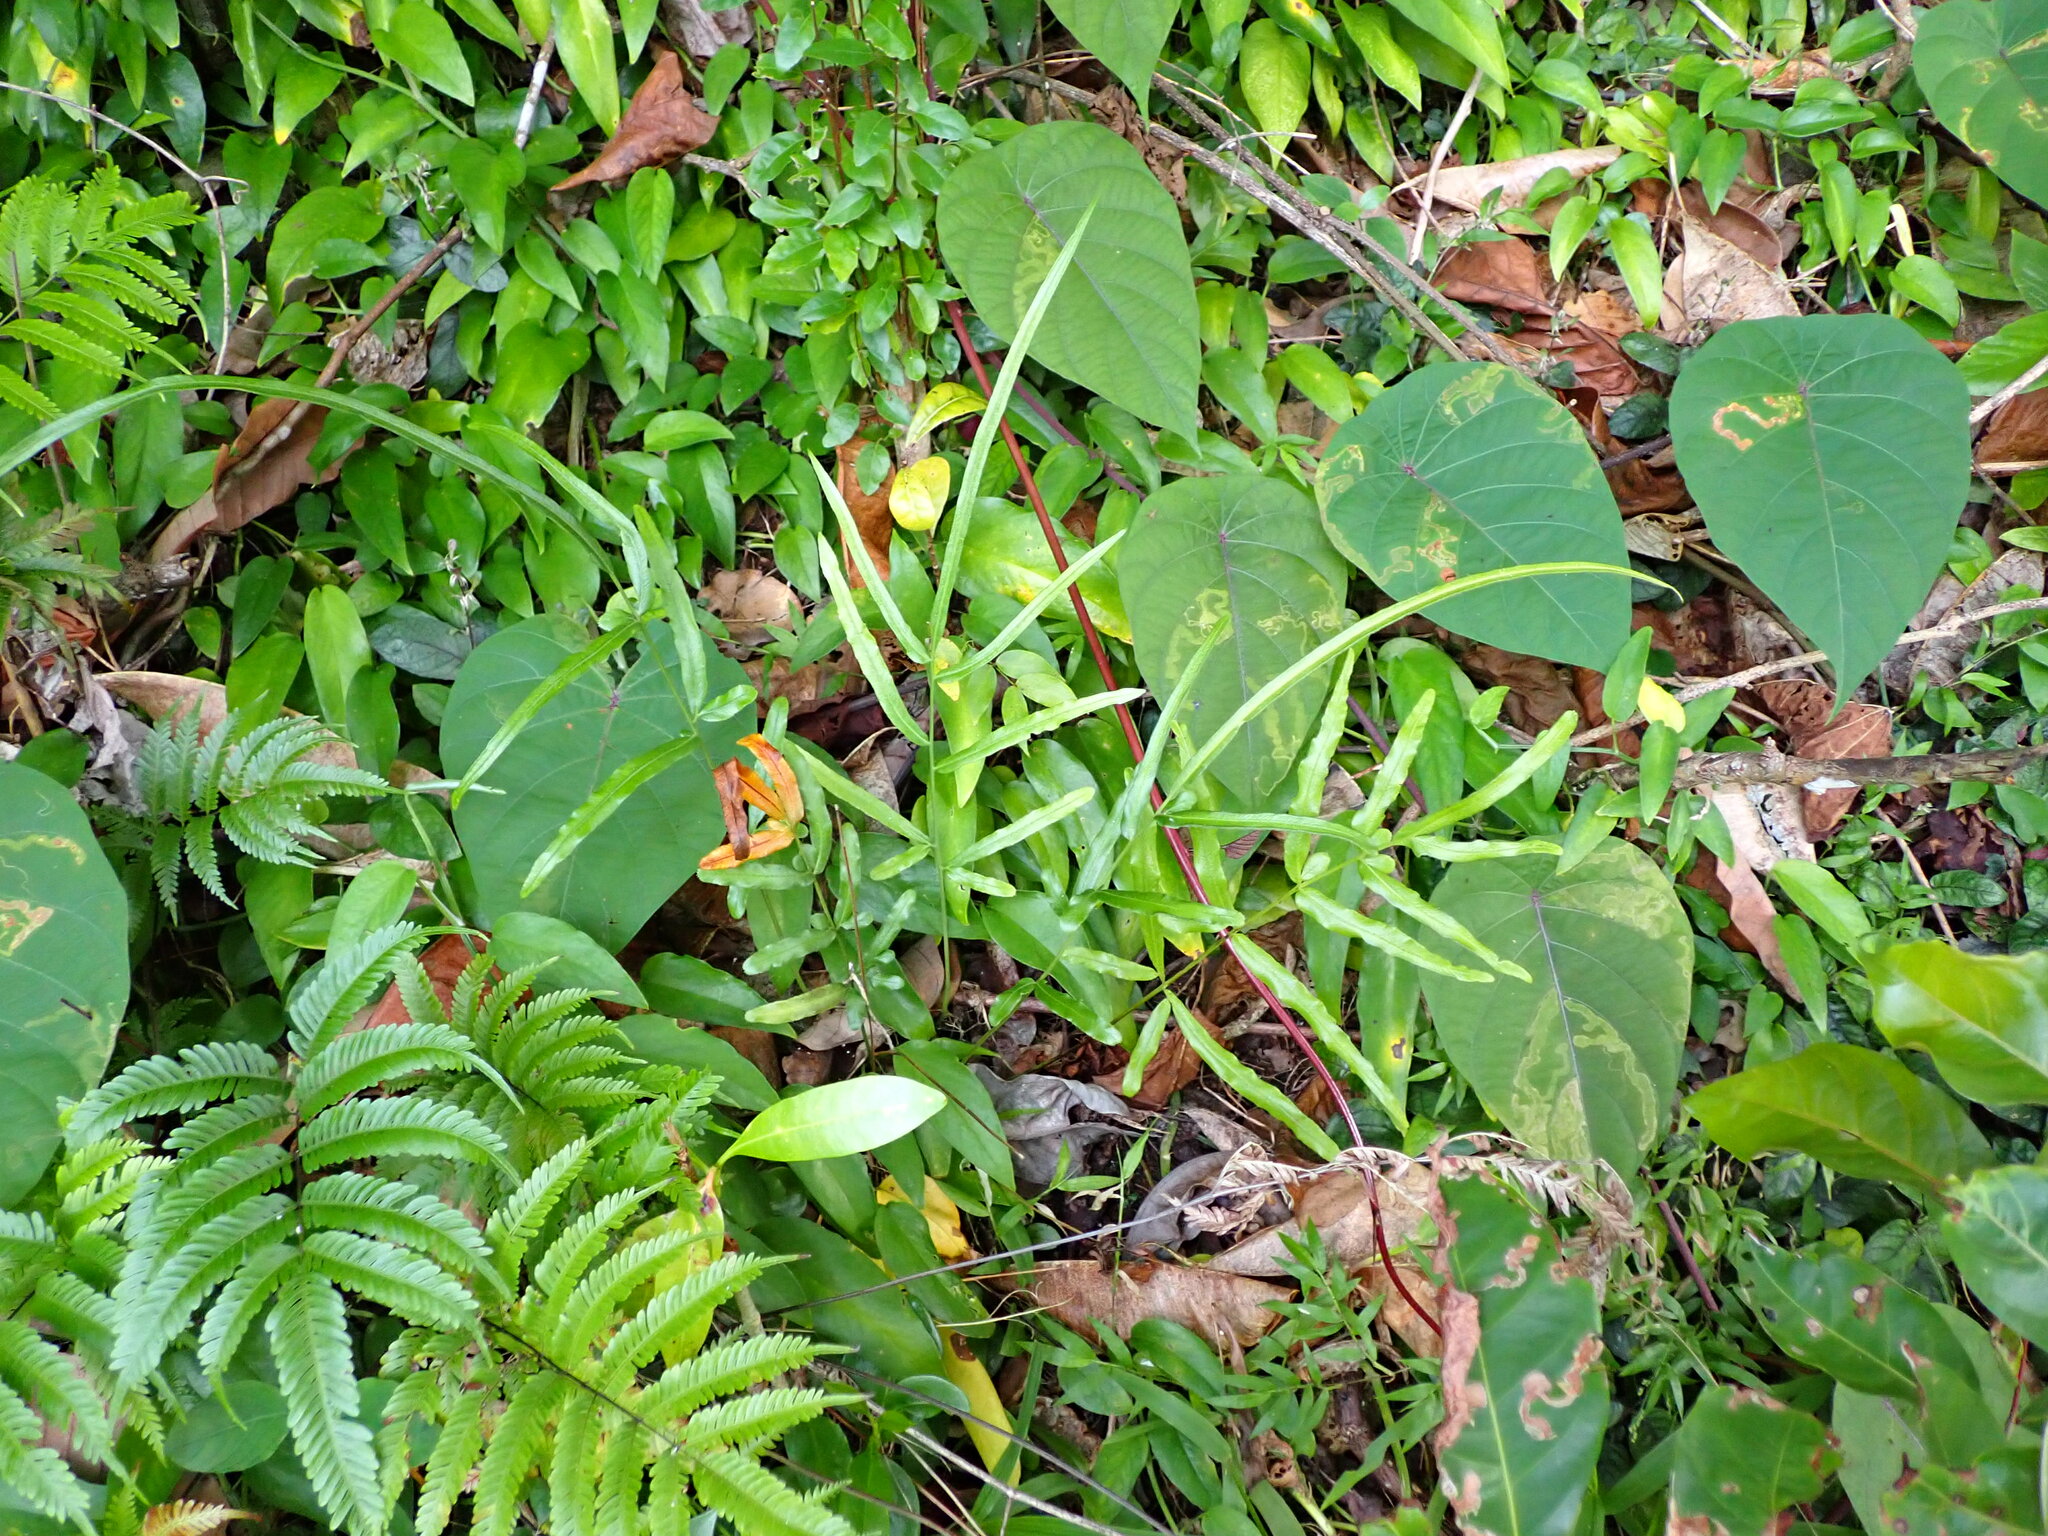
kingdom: Plantae
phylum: Tracheophyta
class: Polypodiopsida
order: Polypodiales
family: Pteridaceae
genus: Pteris
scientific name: Pteris ensiformis
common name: Sword brake
